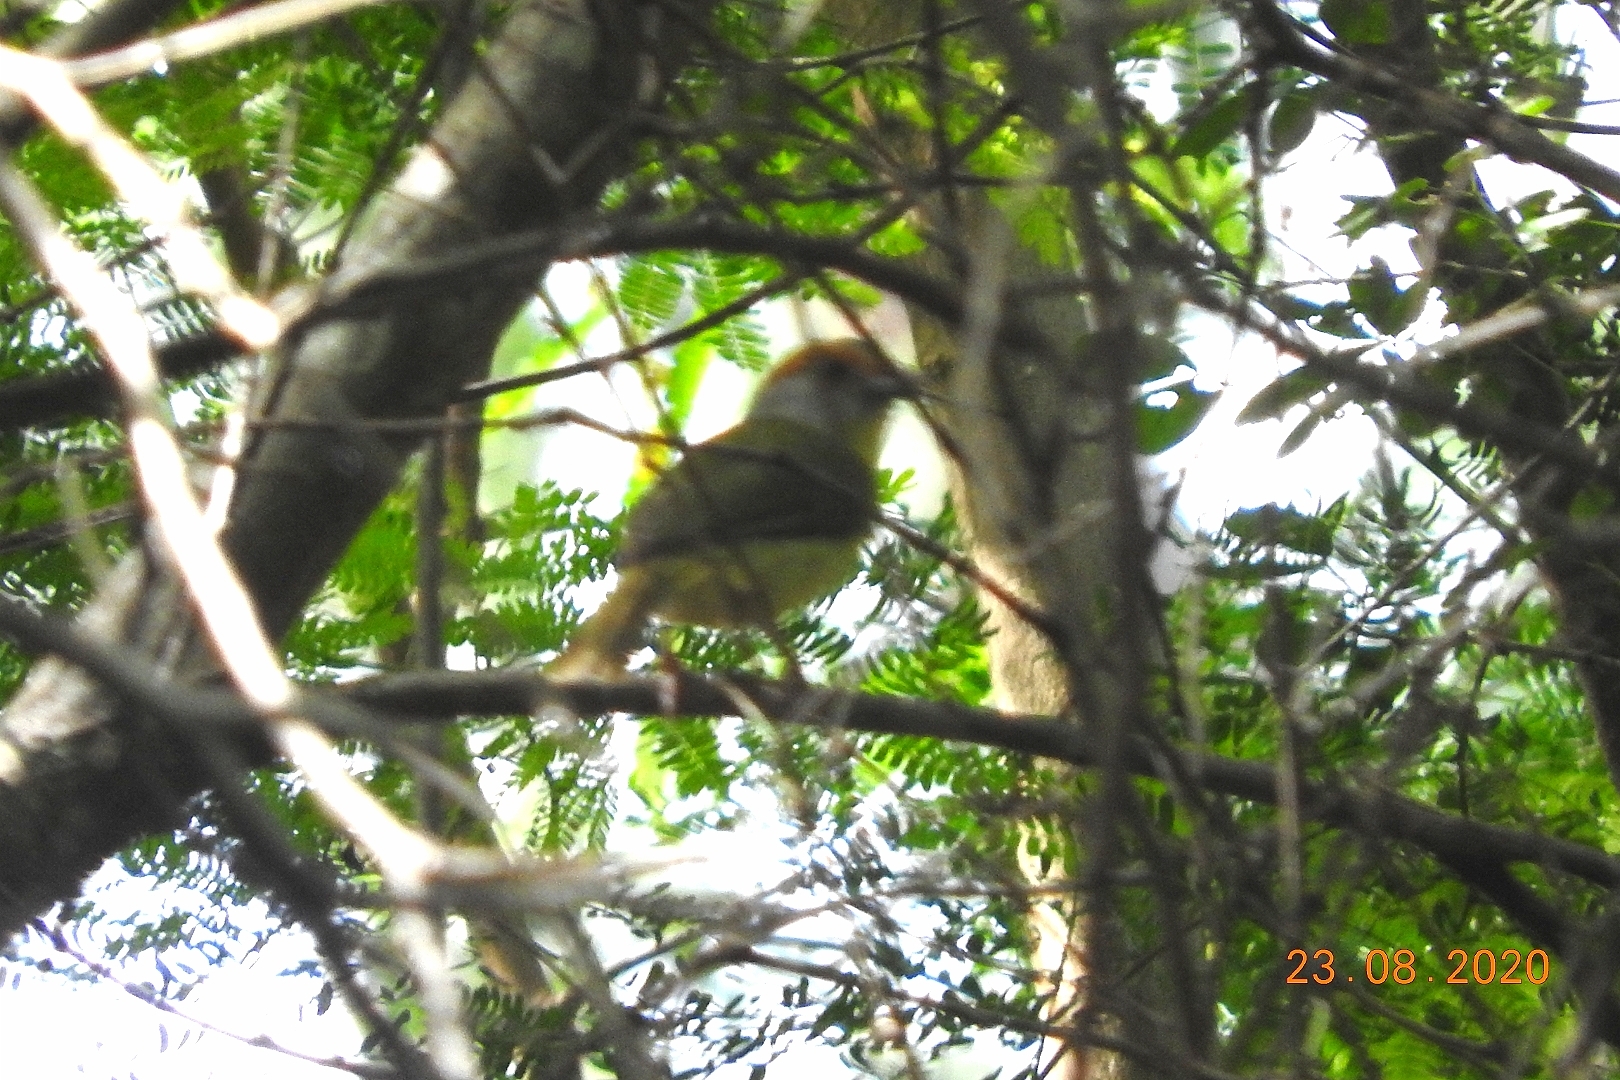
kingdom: Animalia
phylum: Chordata
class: Aves
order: Passeriformes
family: Vireonidae
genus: Cyclarhis
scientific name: Cyclarhis gujanensis
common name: Rufous-browed peppershrike
